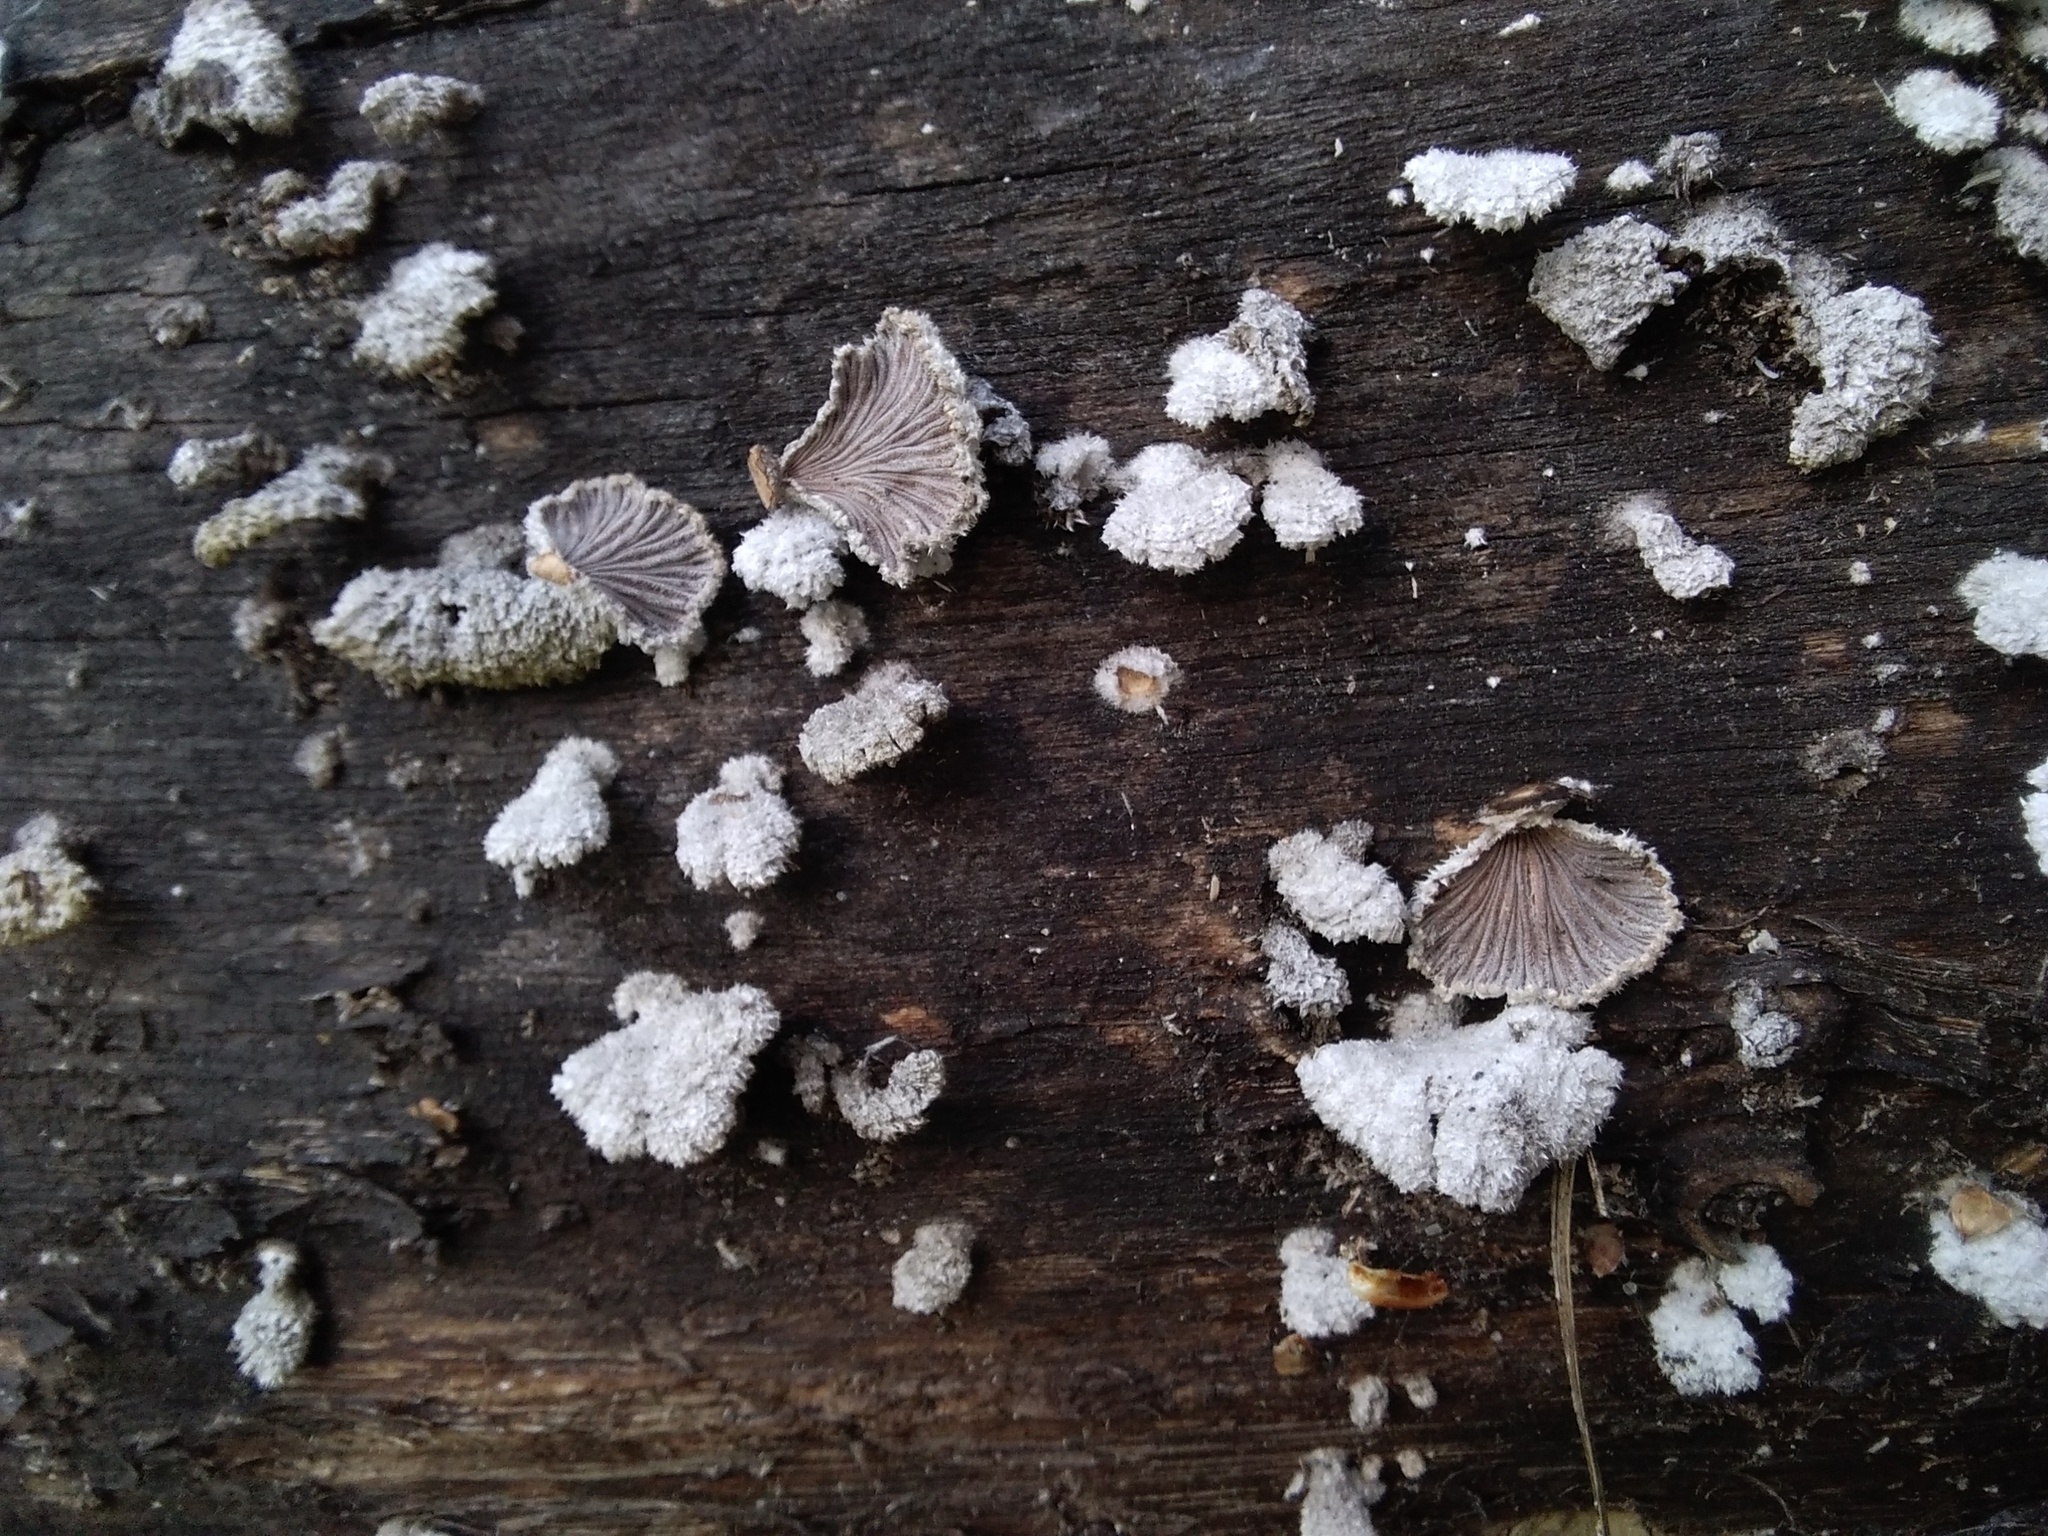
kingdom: Fungi
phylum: Basidiomycota
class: Agaricomycetes
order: Agaricales
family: Schizophyllaceae
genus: Schizophyllum
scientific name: Schizophyllum commune
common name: Common porecrust
